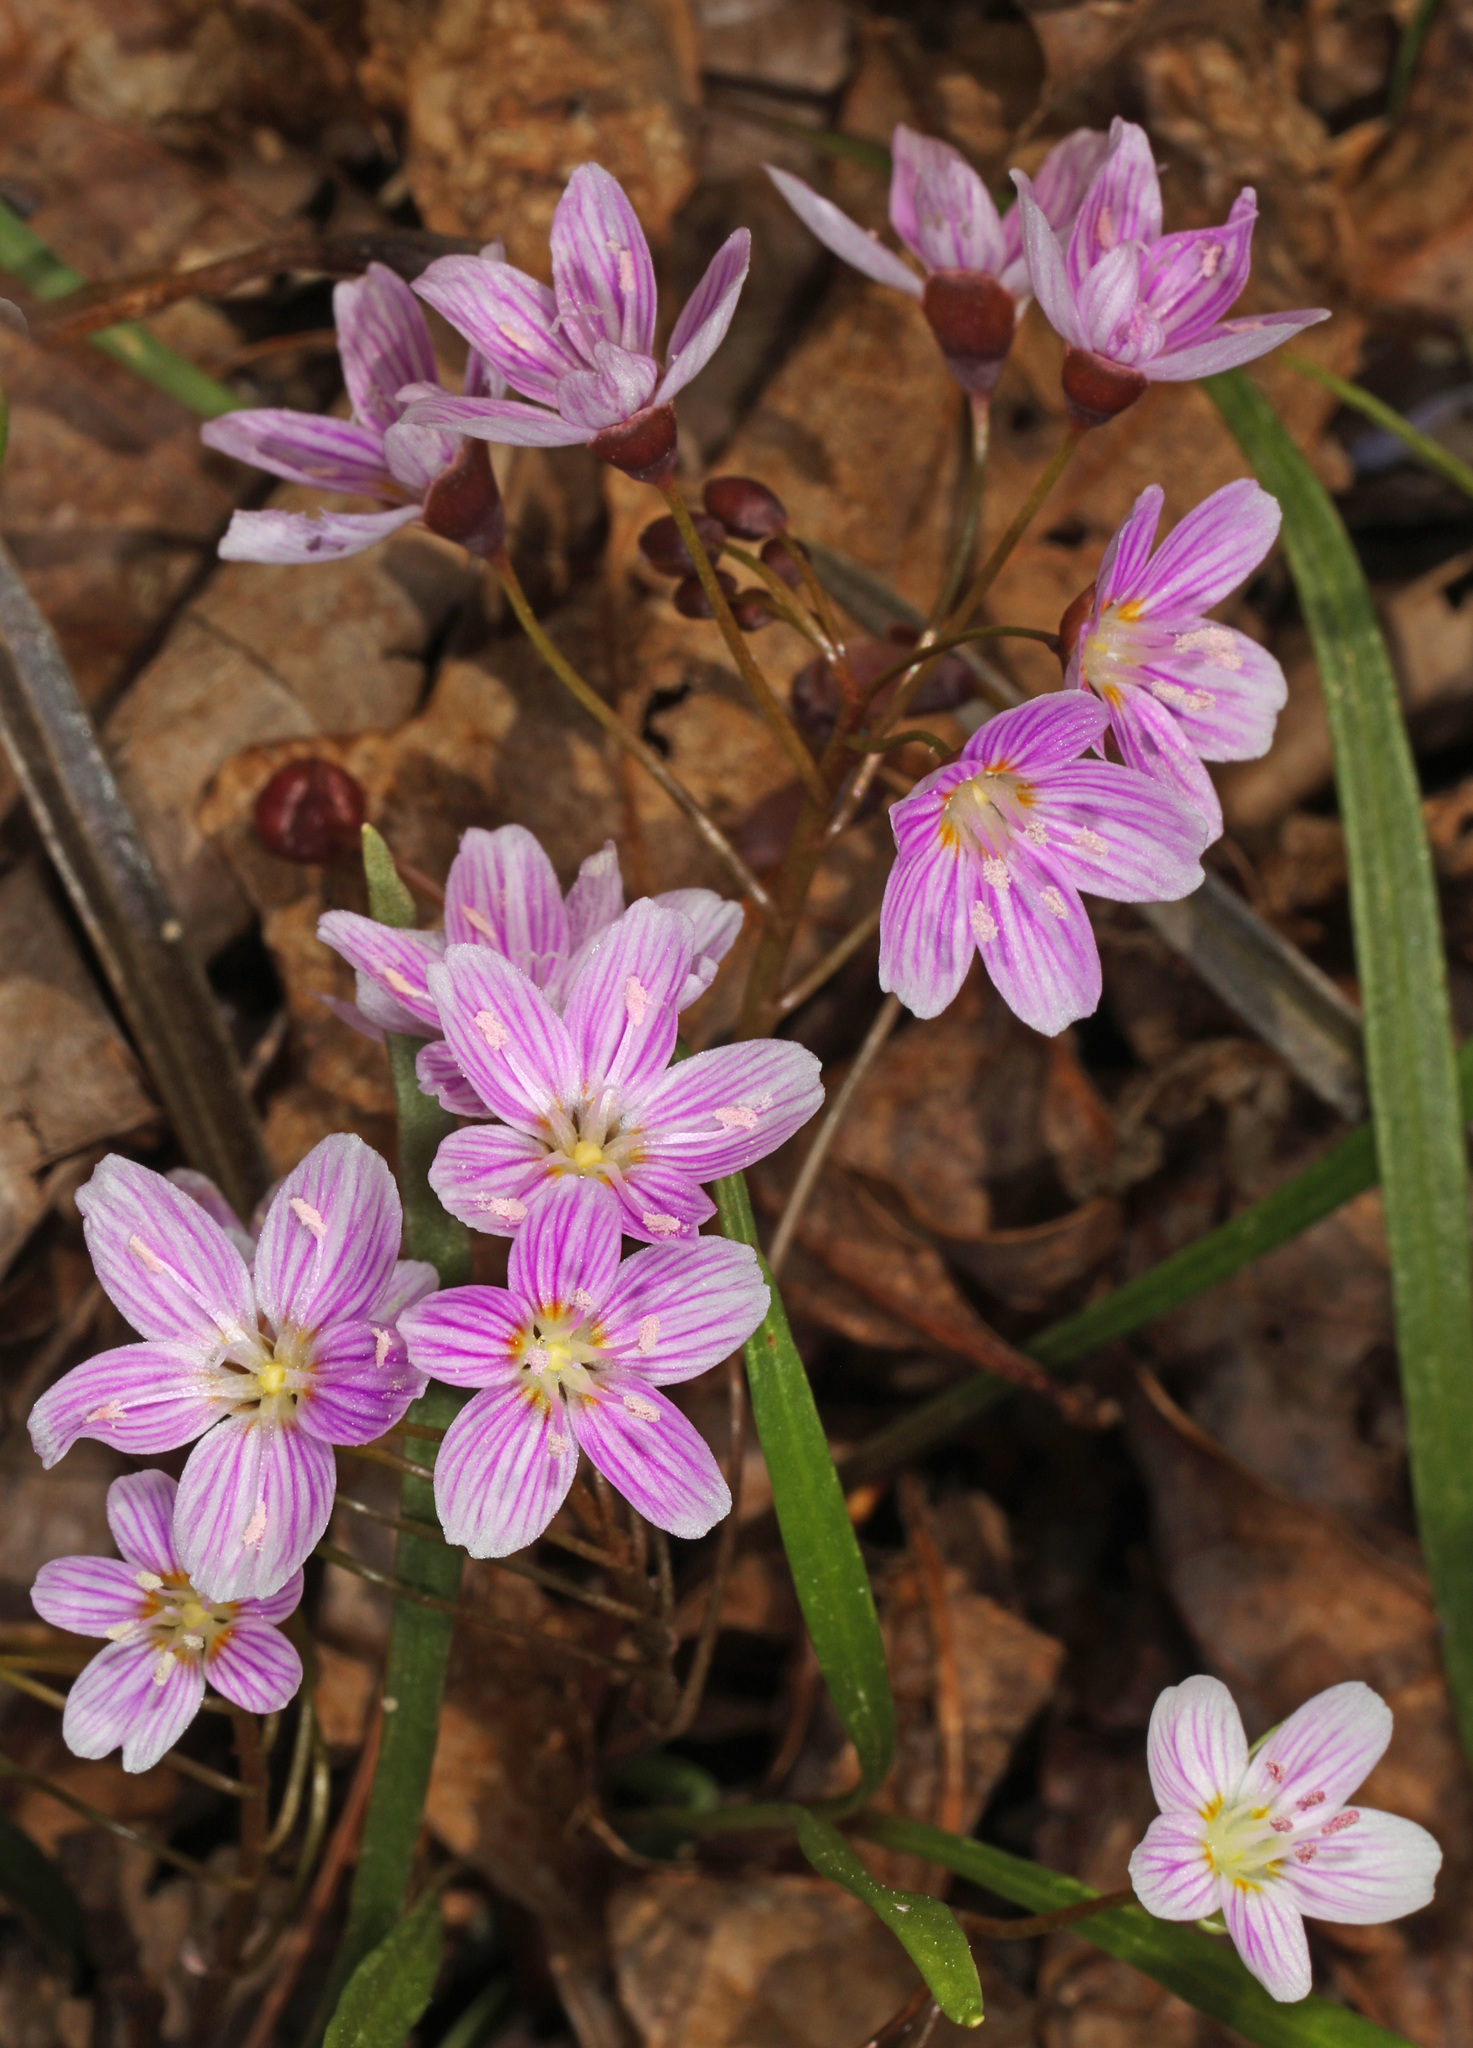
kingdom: Plantae
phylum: Tracheophyta
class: Magnoliopsida
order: Caryophyllales
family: Montiaceae
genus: Claytonia
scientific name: Claytonia virginica
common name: Virginia springbeauty
